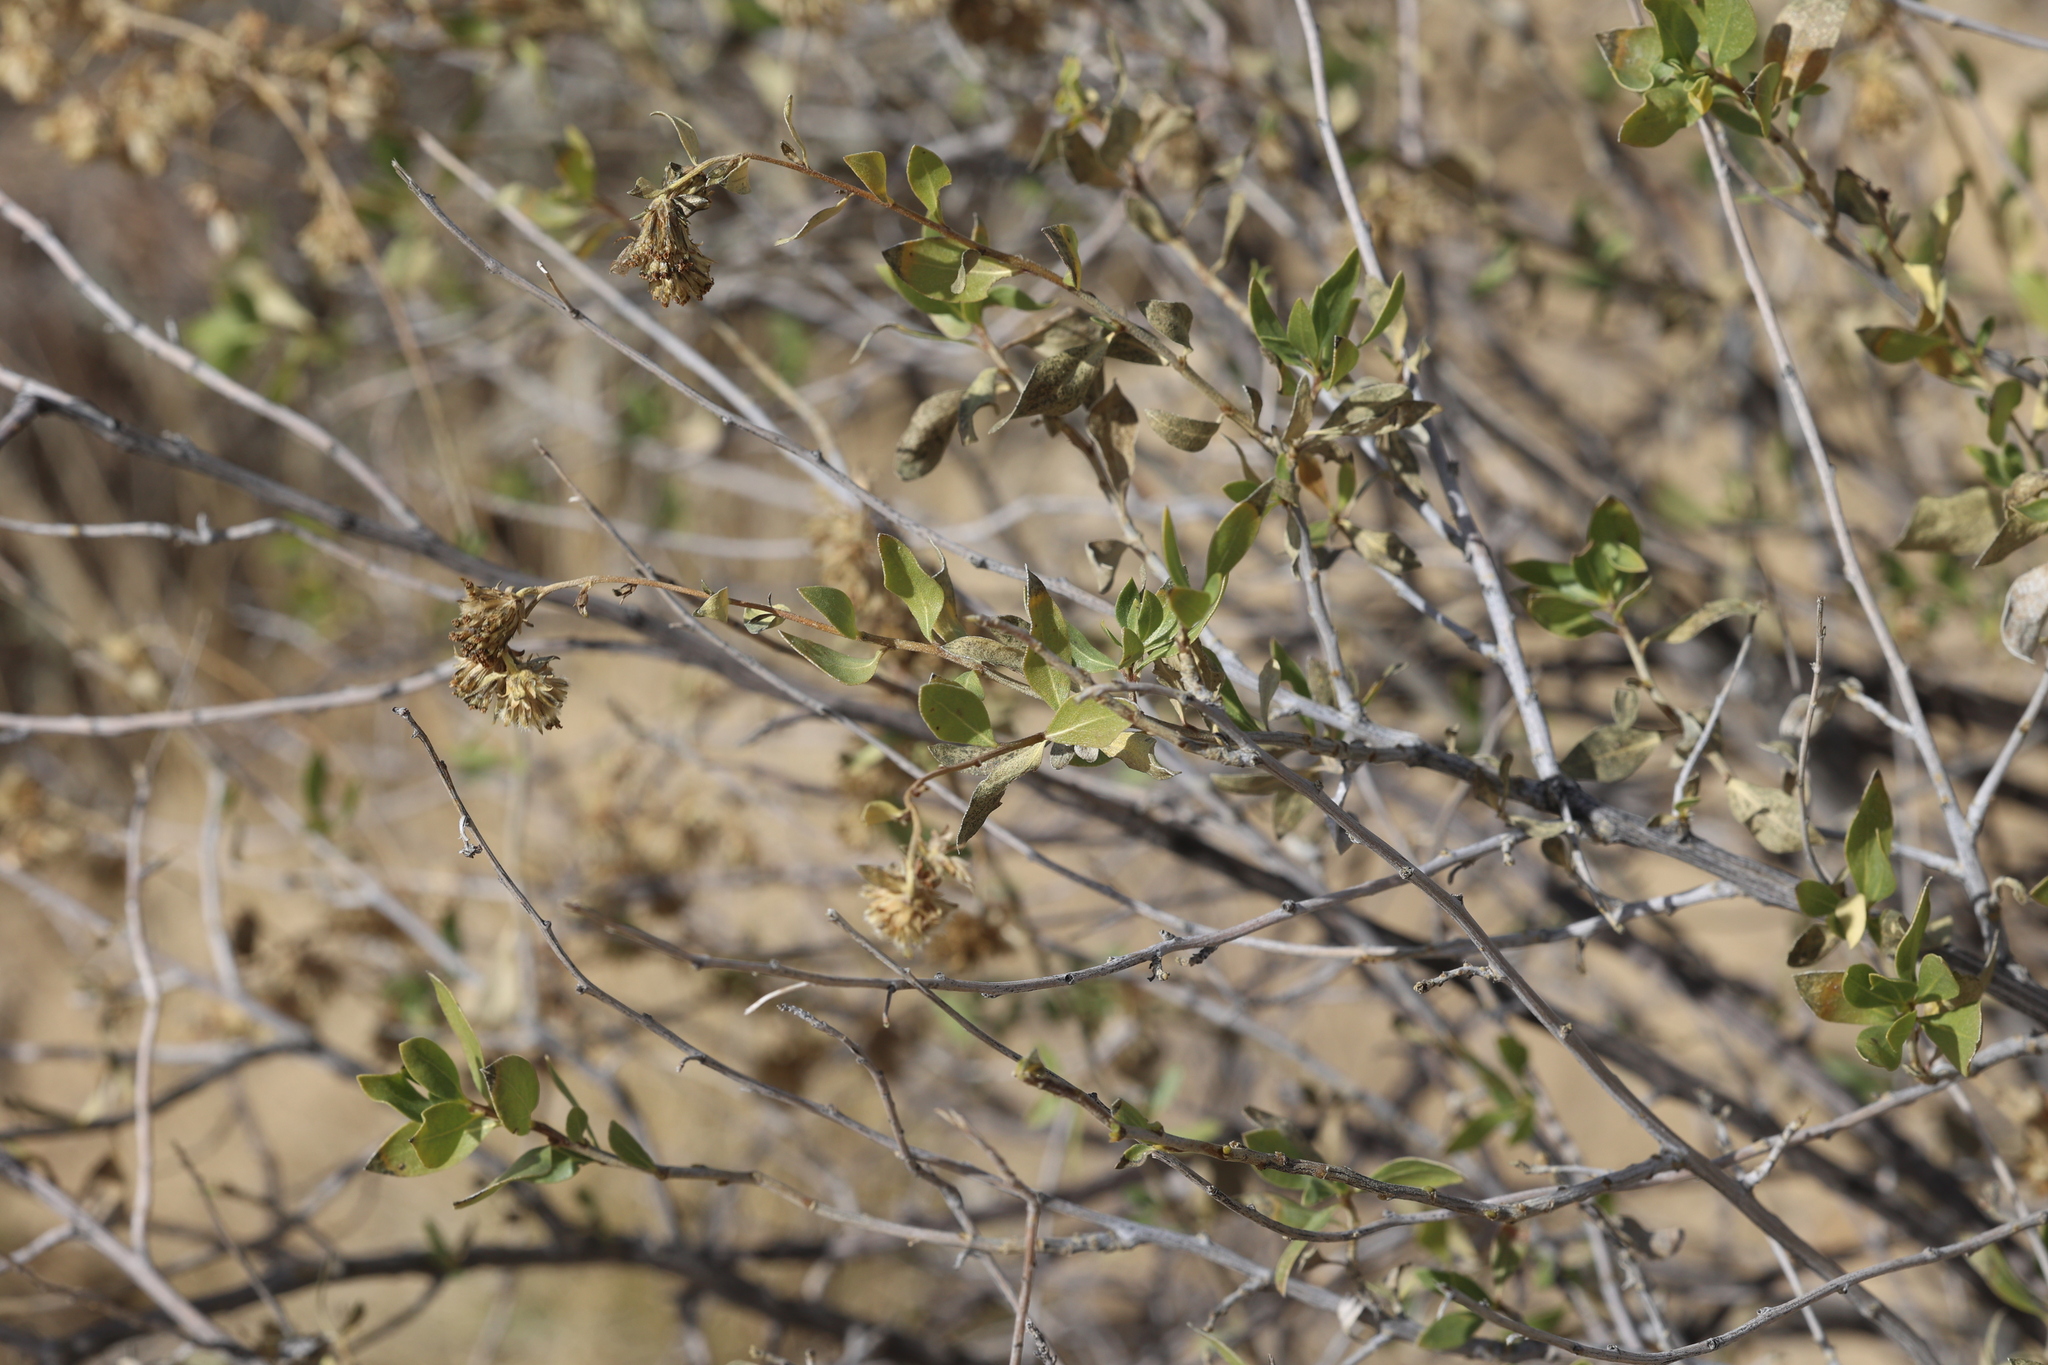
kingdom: Plantae
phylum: Tracheophyta
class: Magnoliopsida
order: Asterales
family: Asteraceae
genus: Flourensia
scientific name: Flourensia cernua
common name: Varnishbush
